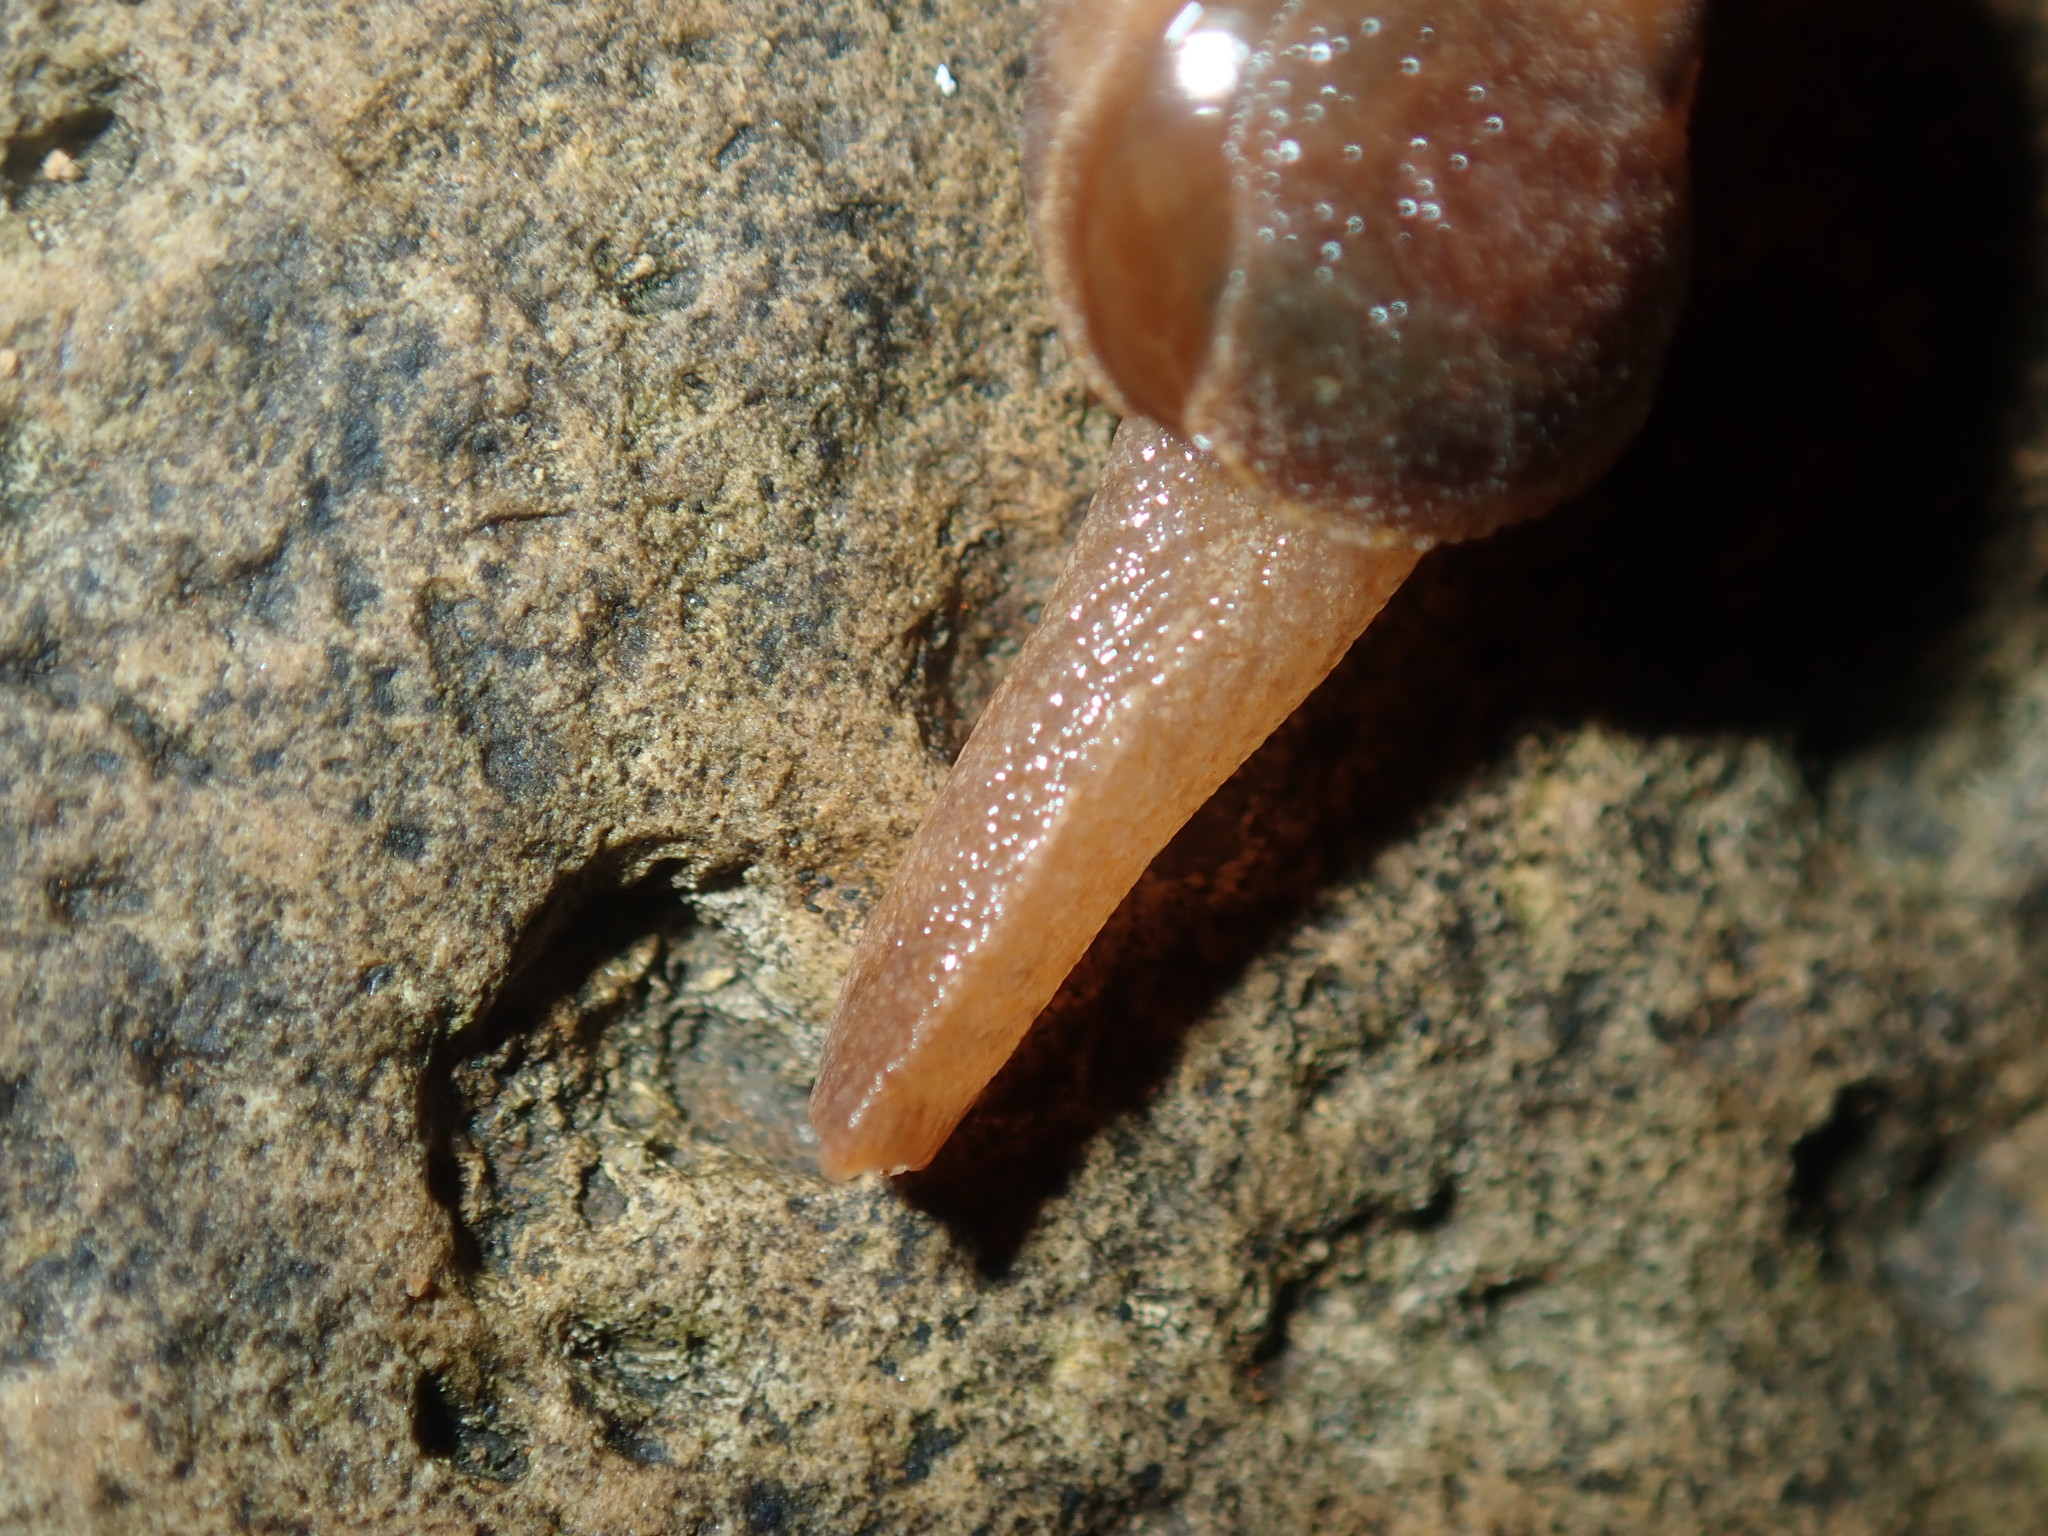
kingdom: Animalia
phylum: Mollusca
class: Gastropoda
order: Stylommatophora
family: Helicarionidae
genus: Stanisicarion
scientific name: Stanisicarion freycineti
